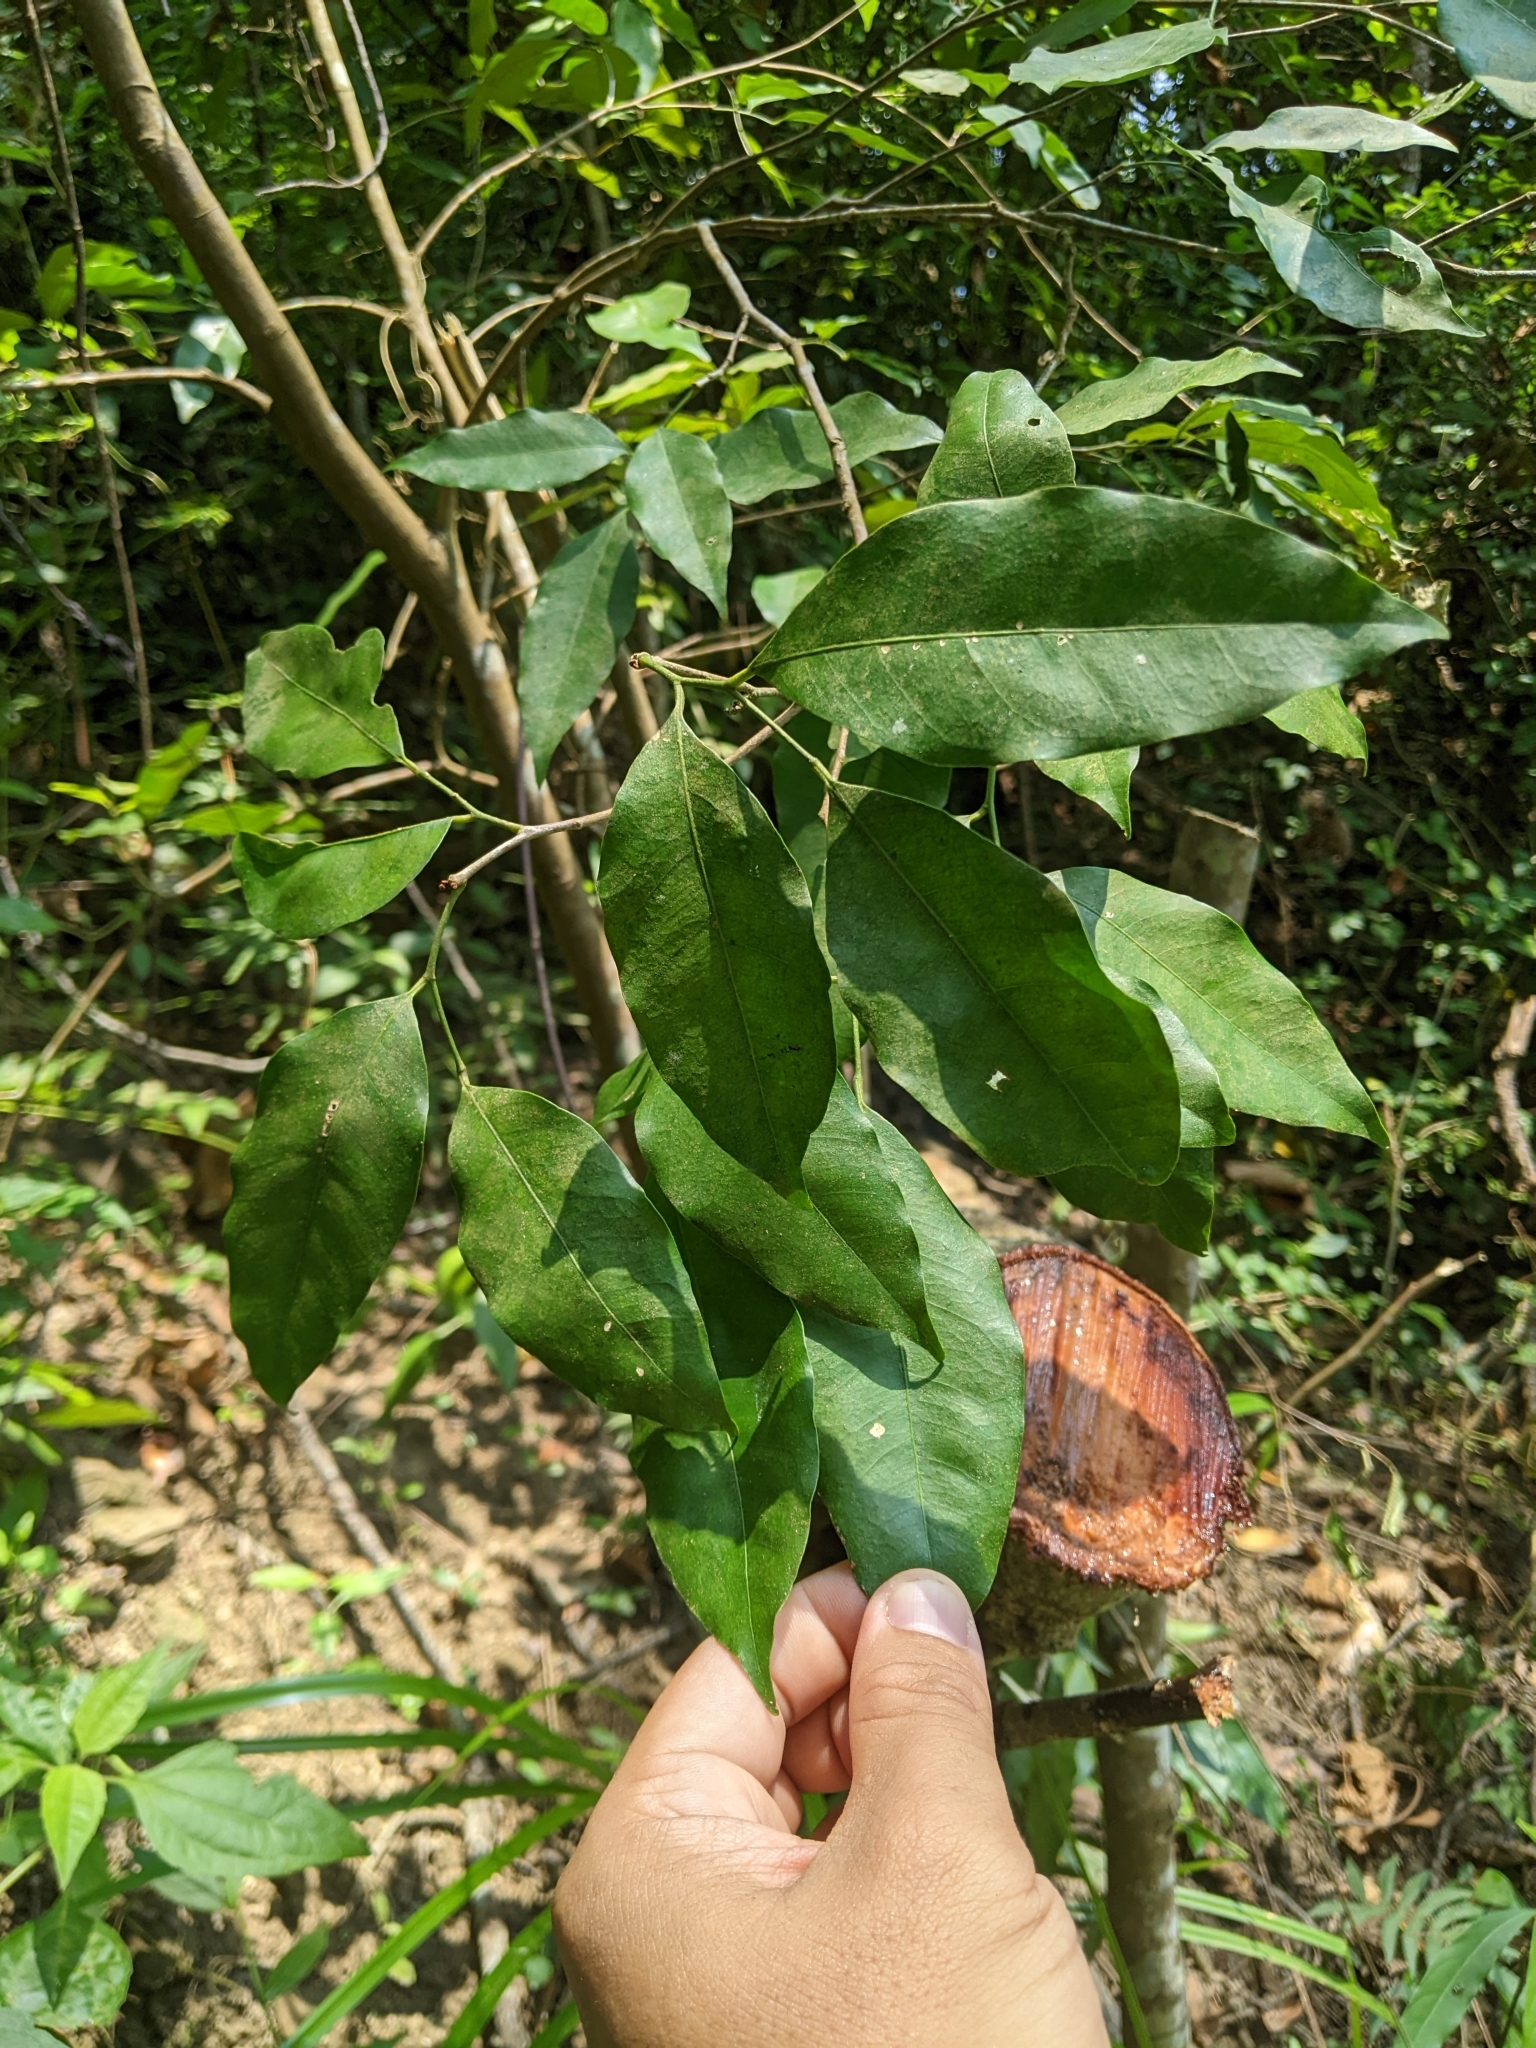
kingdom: Plantae
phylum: Tracheophyta
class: Magnoliopsida
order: Sapindales
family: Rutaceae
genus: Glycosmis
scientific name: Glycosmis parviflora
